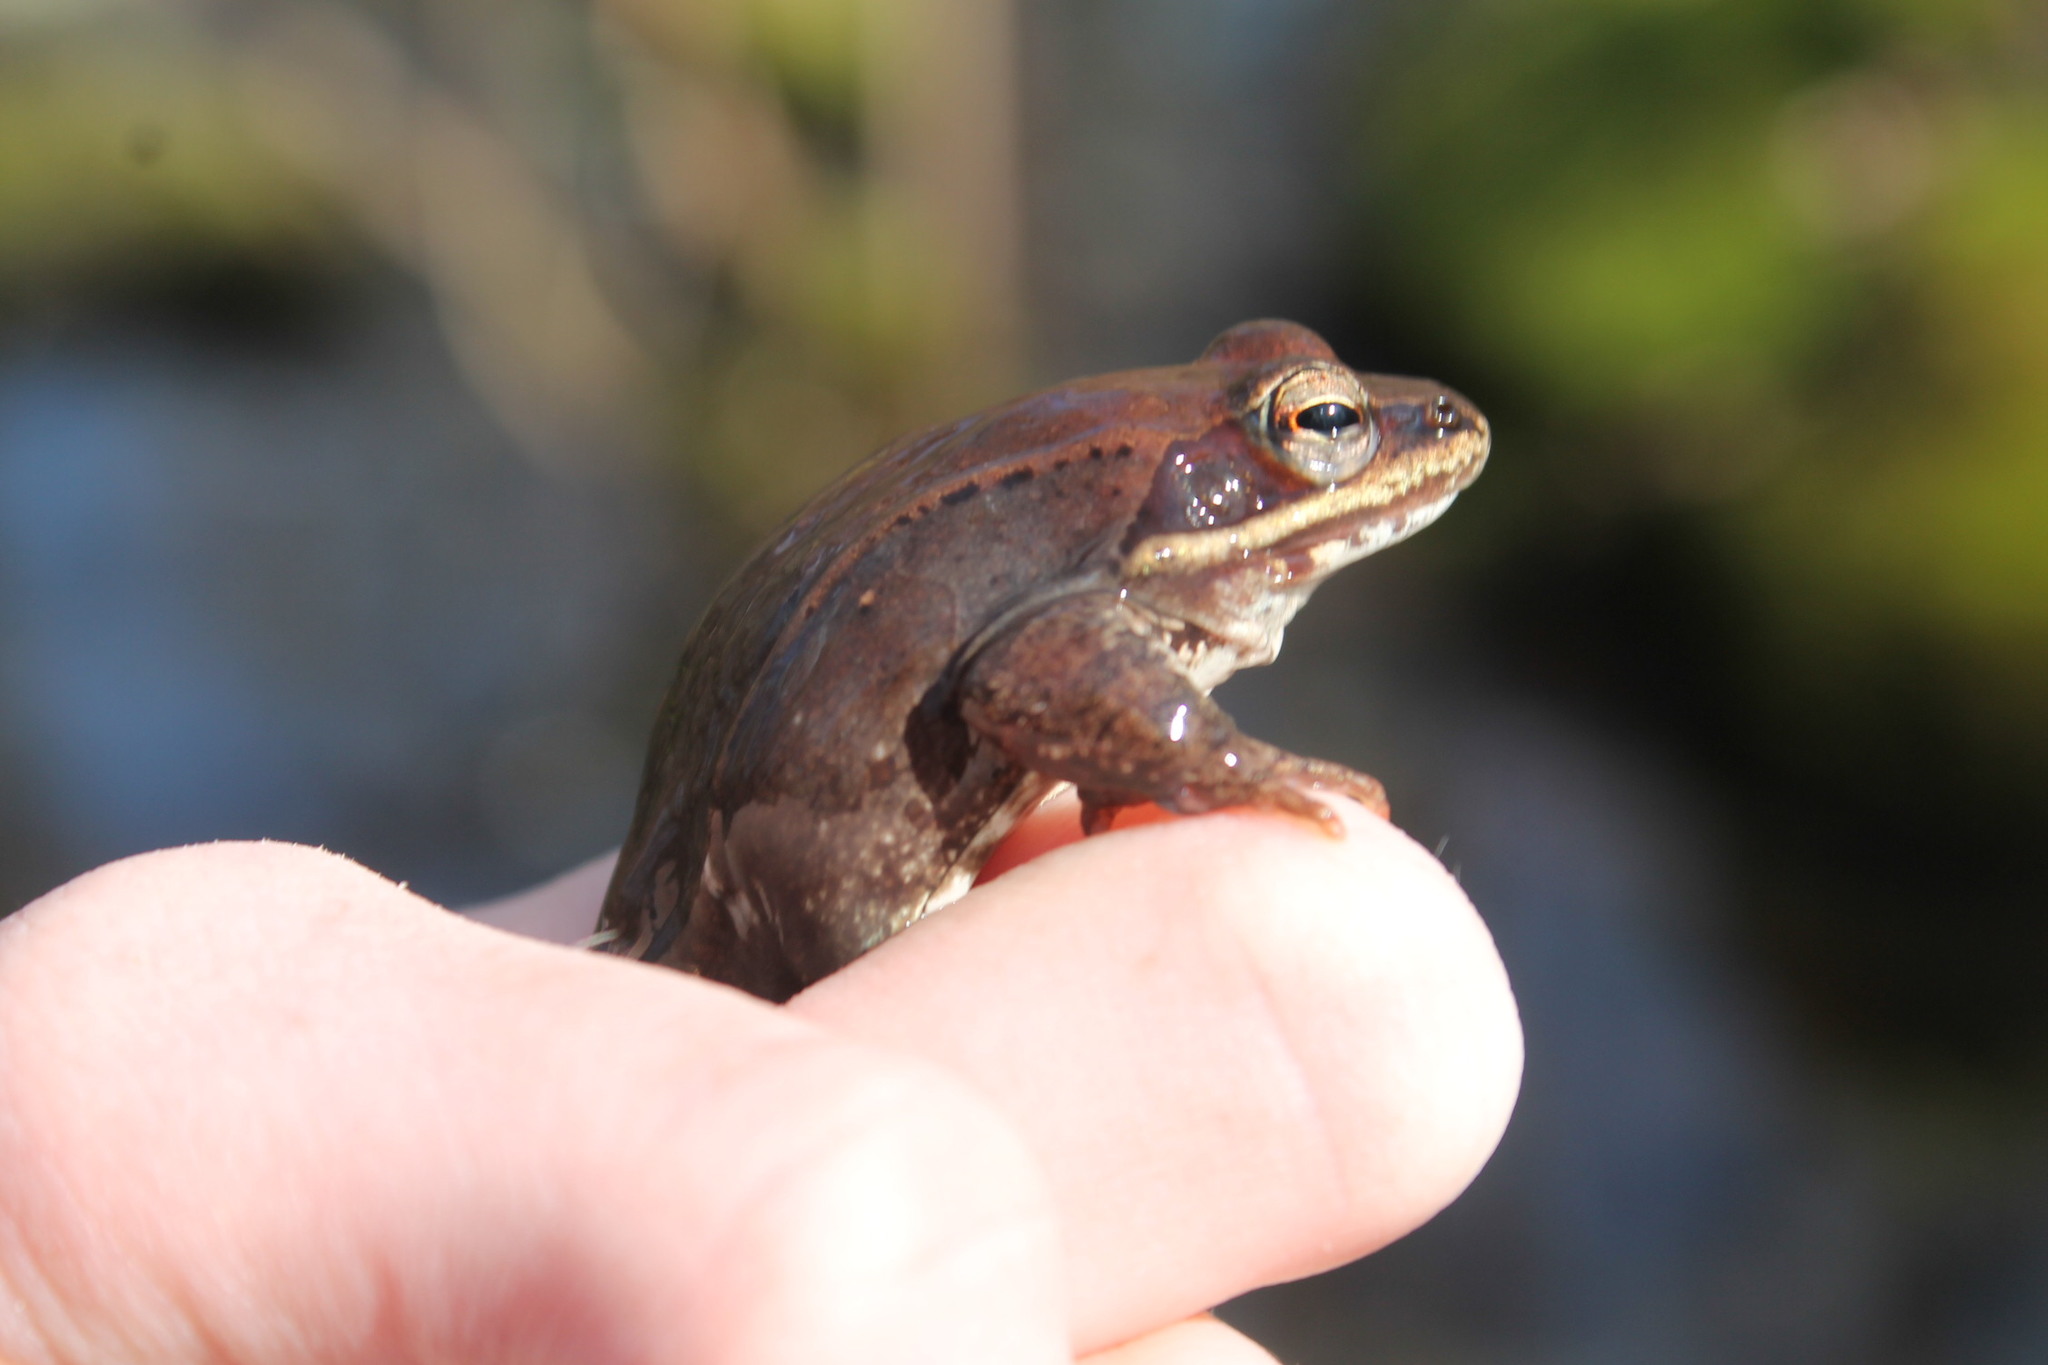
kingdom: Animalia
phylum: Chordata
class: Amphibia
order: Anura
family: Ranidae
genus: Lithobates
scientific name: Lithobates sylvaticus
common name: Wood frog
